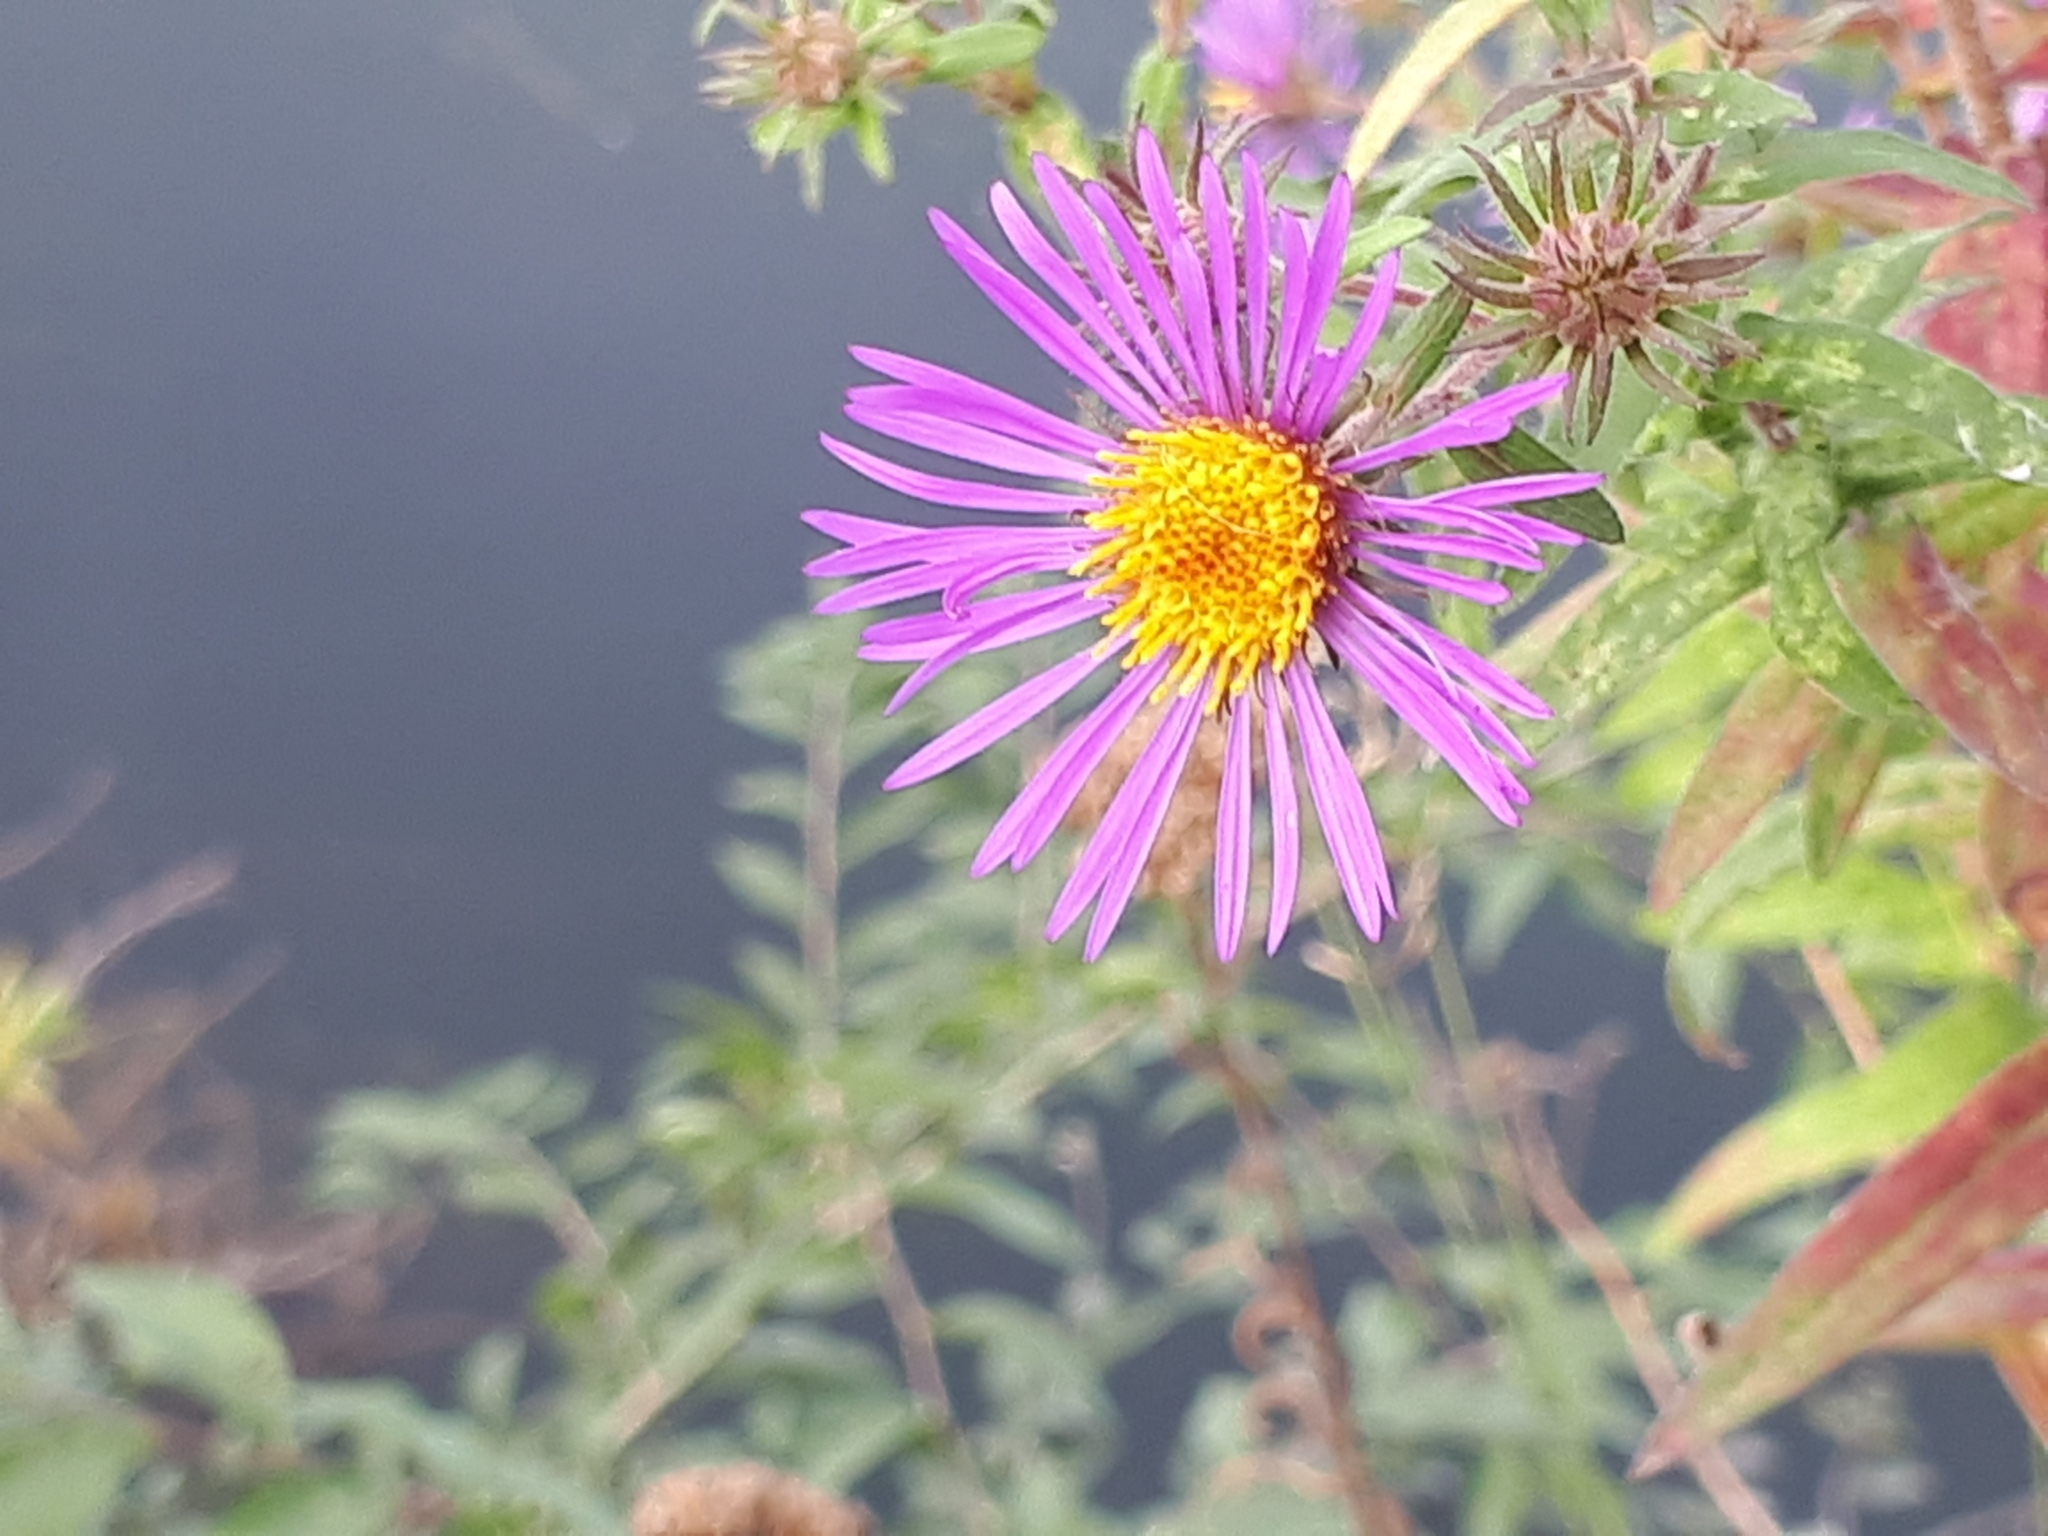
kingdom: Plantae
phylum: Tracheophyta
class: Magnoliopsida
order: Asterales
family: Asteraceae
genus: Symphyotrichum
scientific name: Symphyotrichum novae-angliae
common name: Michaelmas daisy
